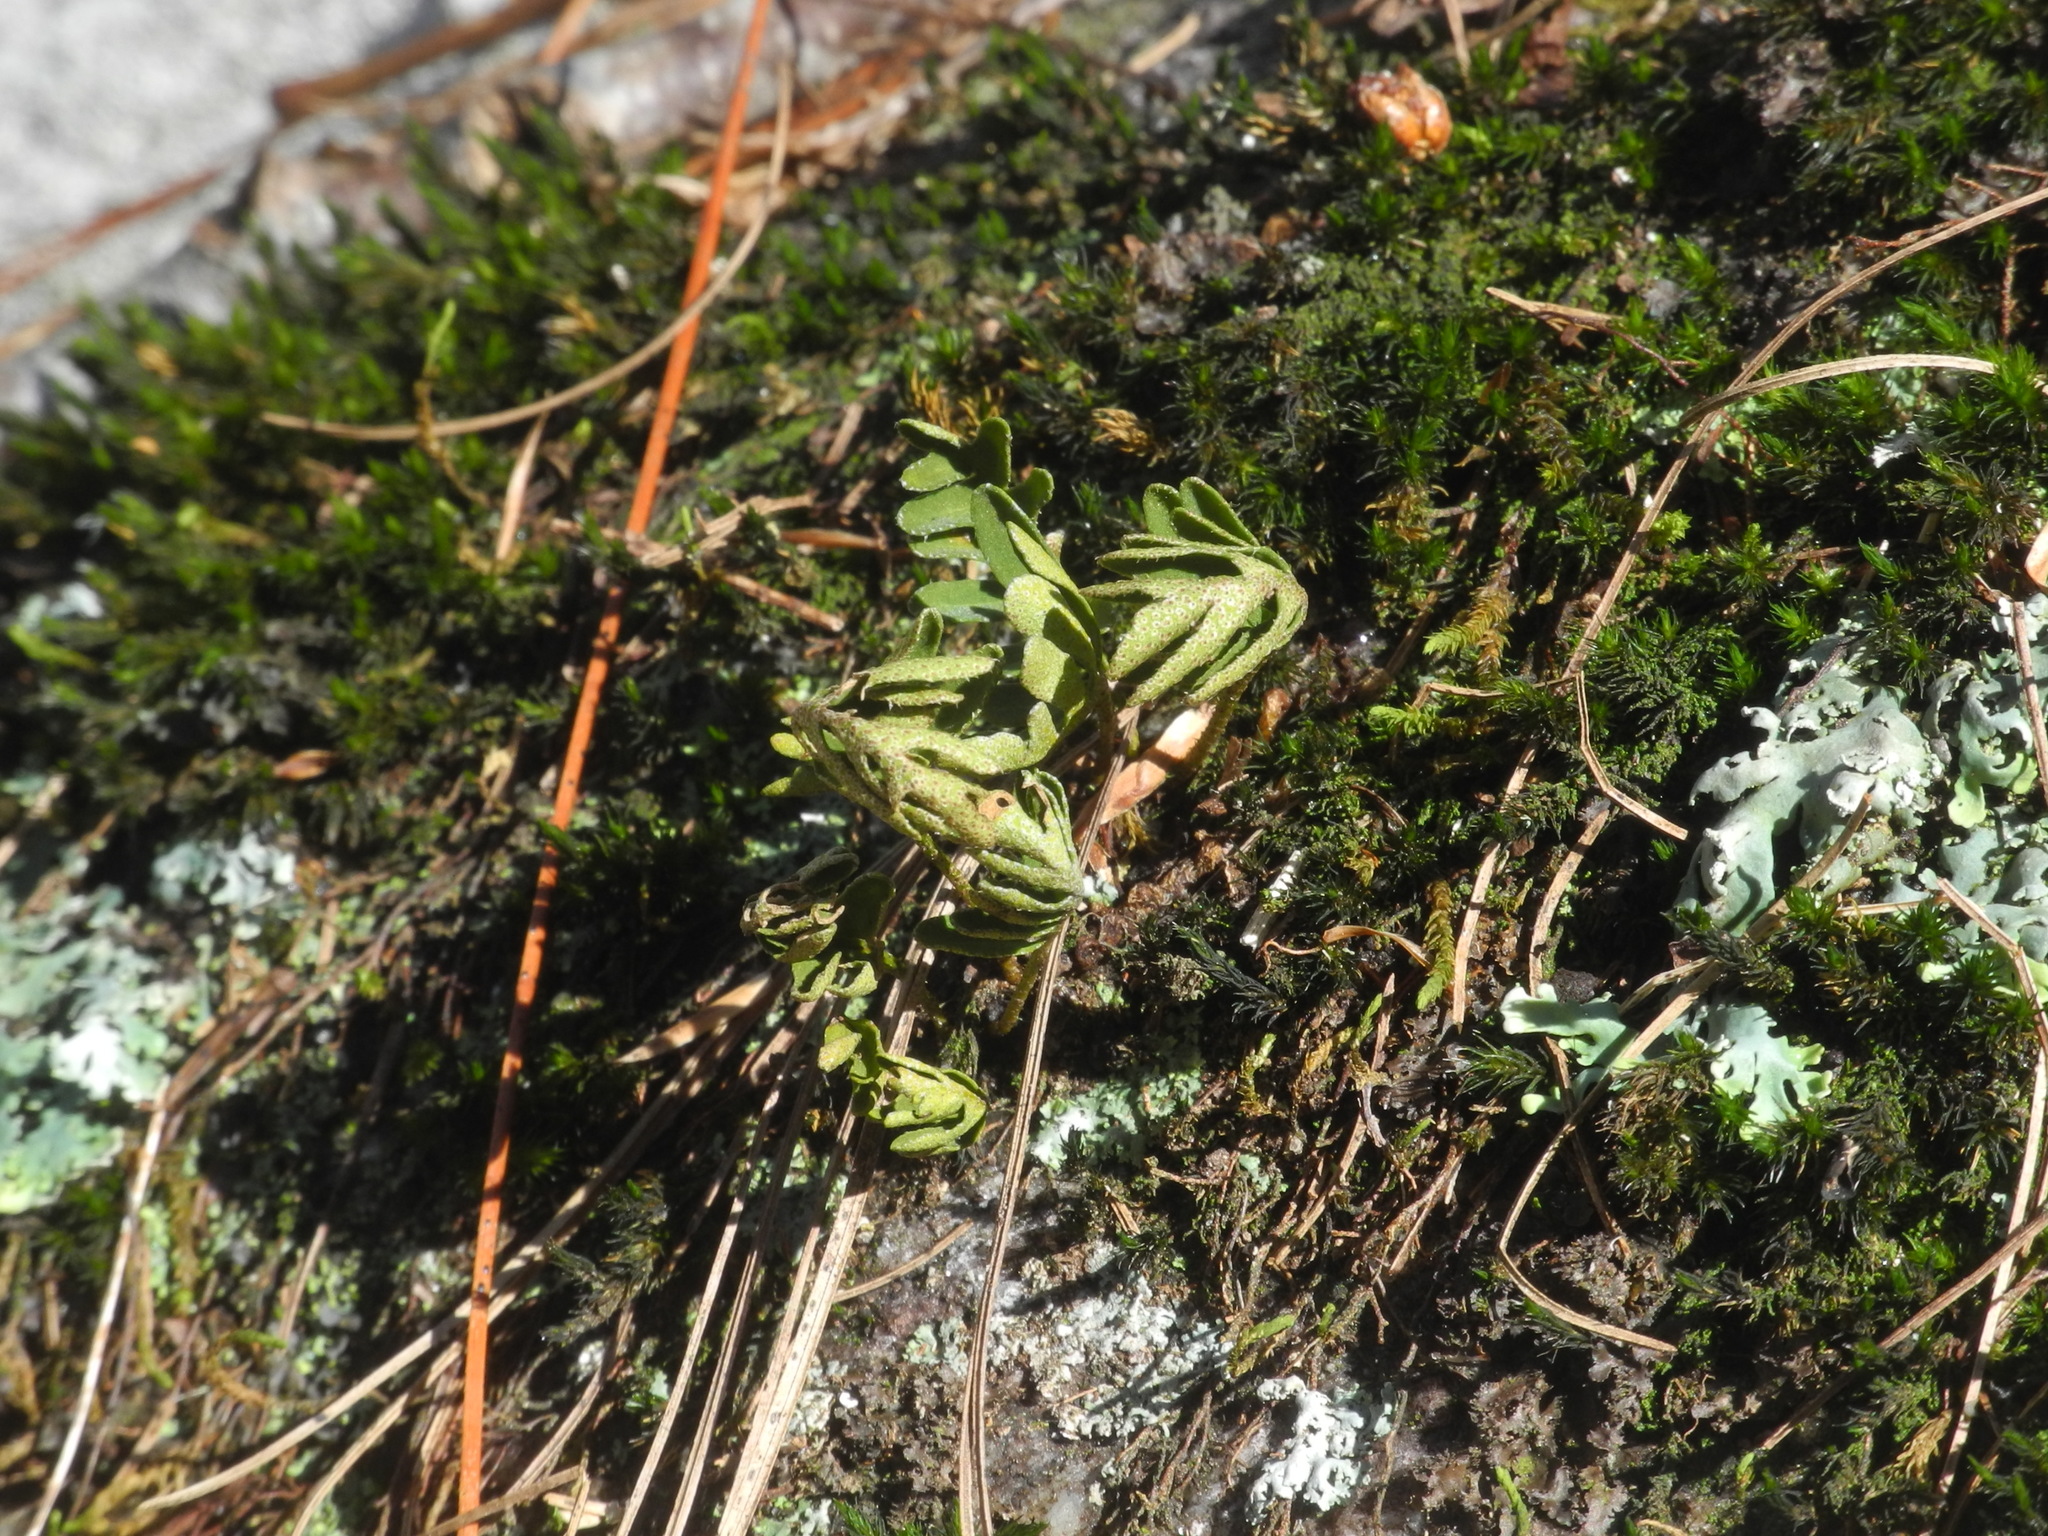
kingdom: Plantae
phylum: Tracheophyta
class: Polypodiopsida
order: Polypodiales
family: Polypodiaceae
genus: Pleopeltis
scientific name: Pleopeltis michauxiana
